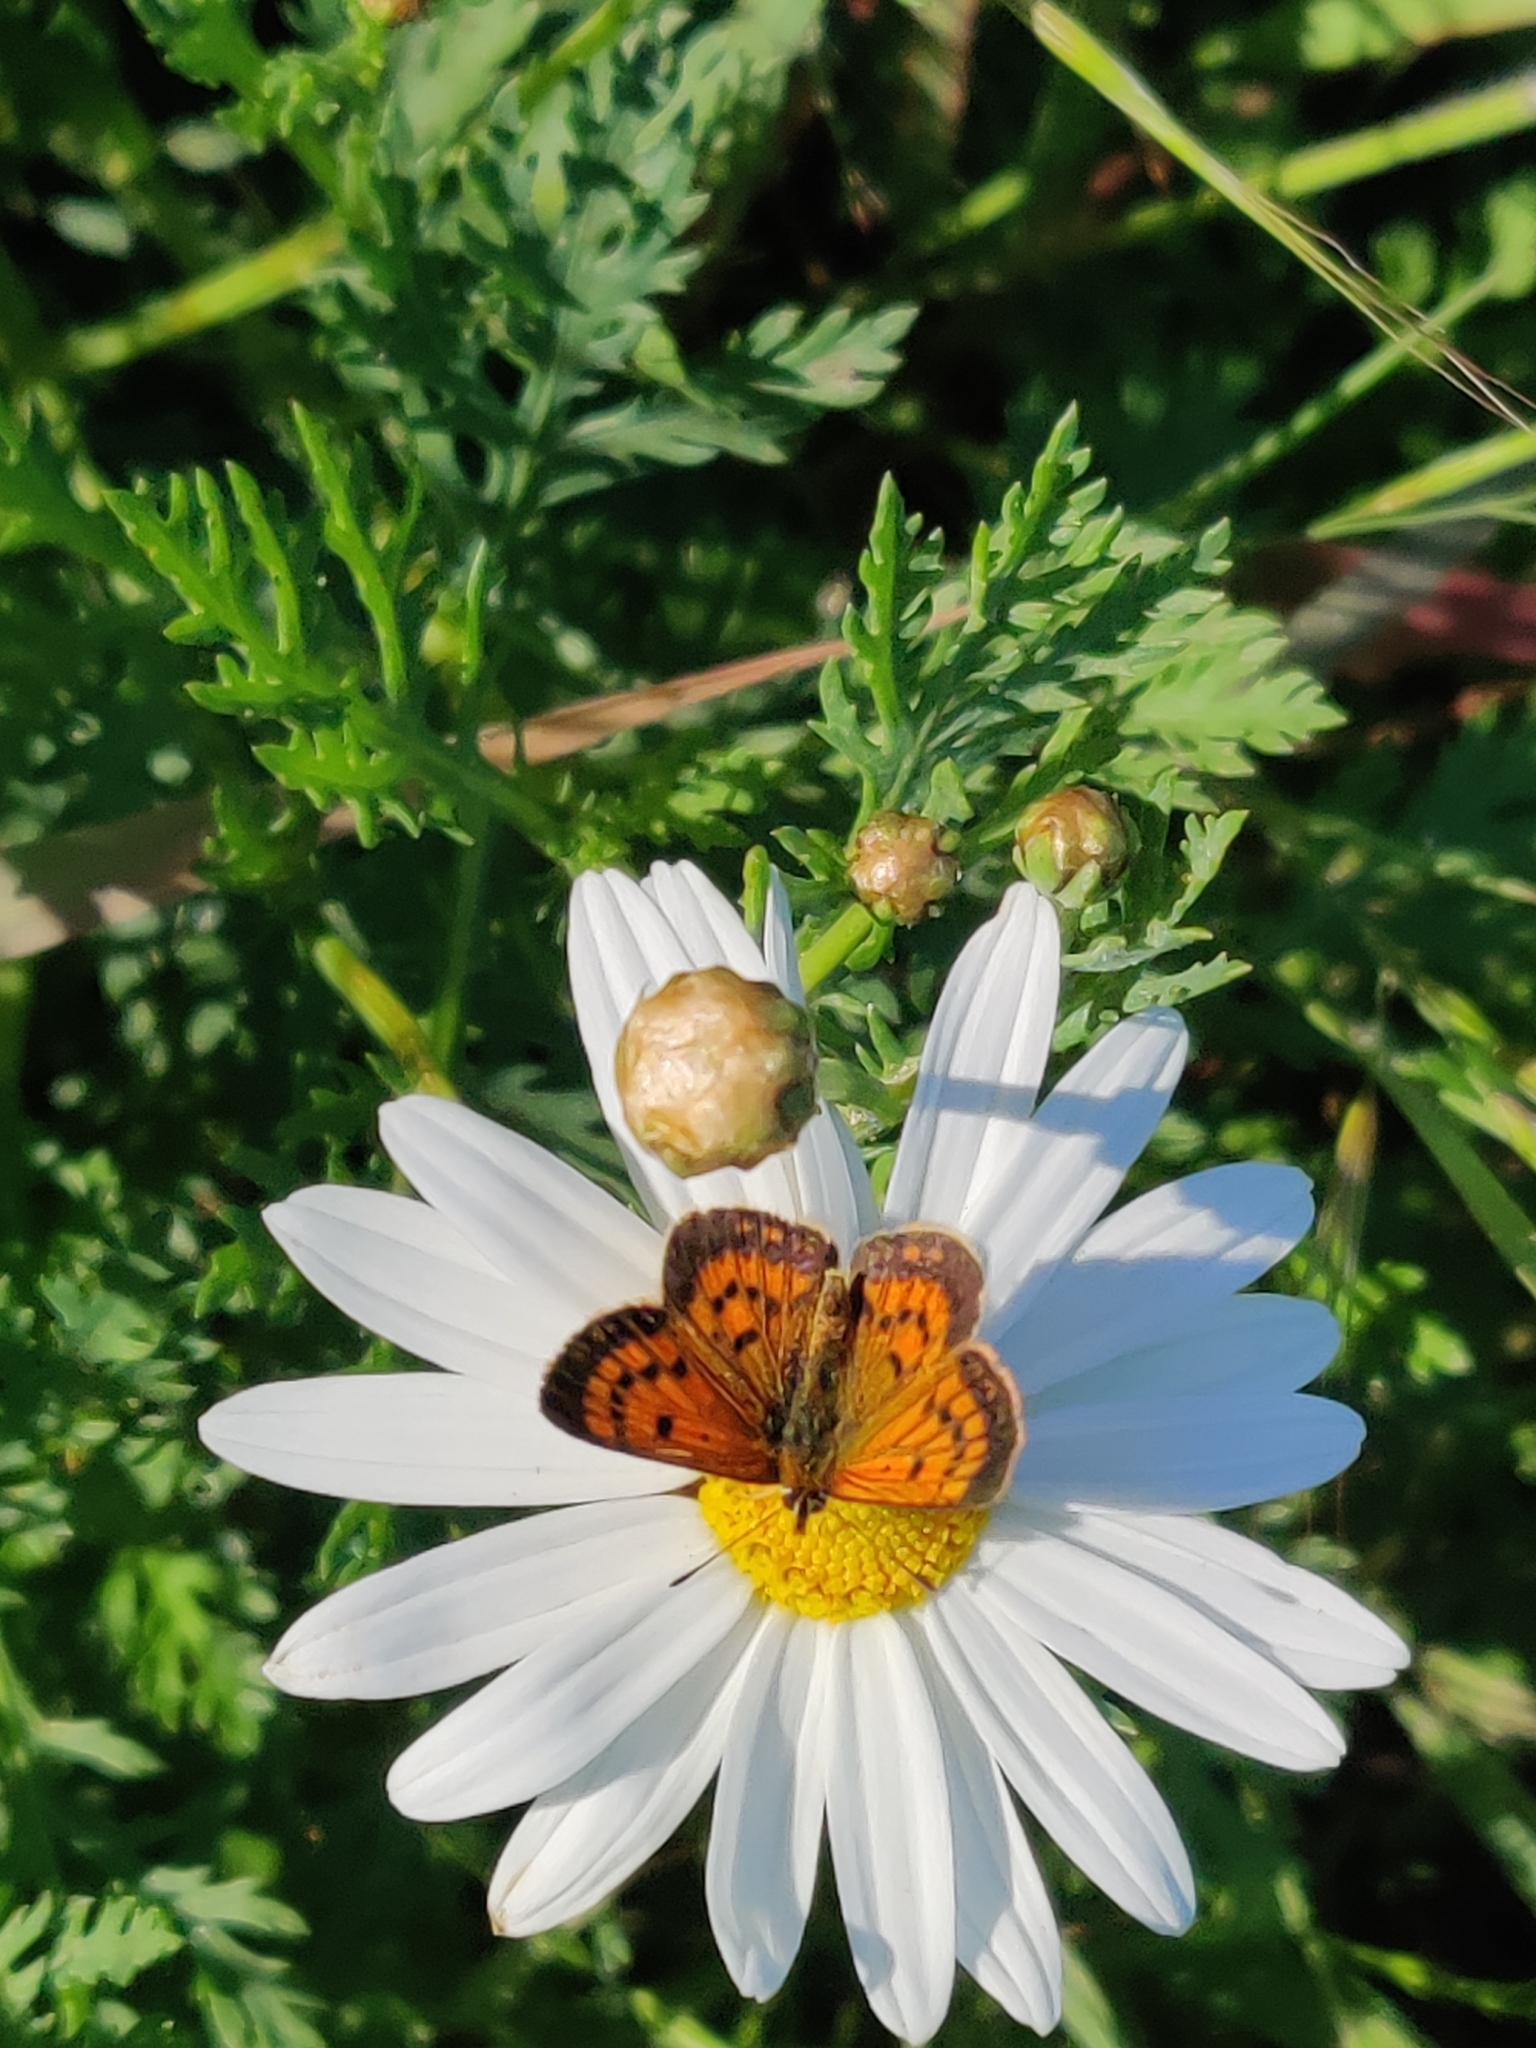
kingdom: Animalia
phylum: Arthropoda
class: Insecta
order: Lepidoptera
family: Lycaenidae
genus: Lycaena
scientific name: Lycaena
